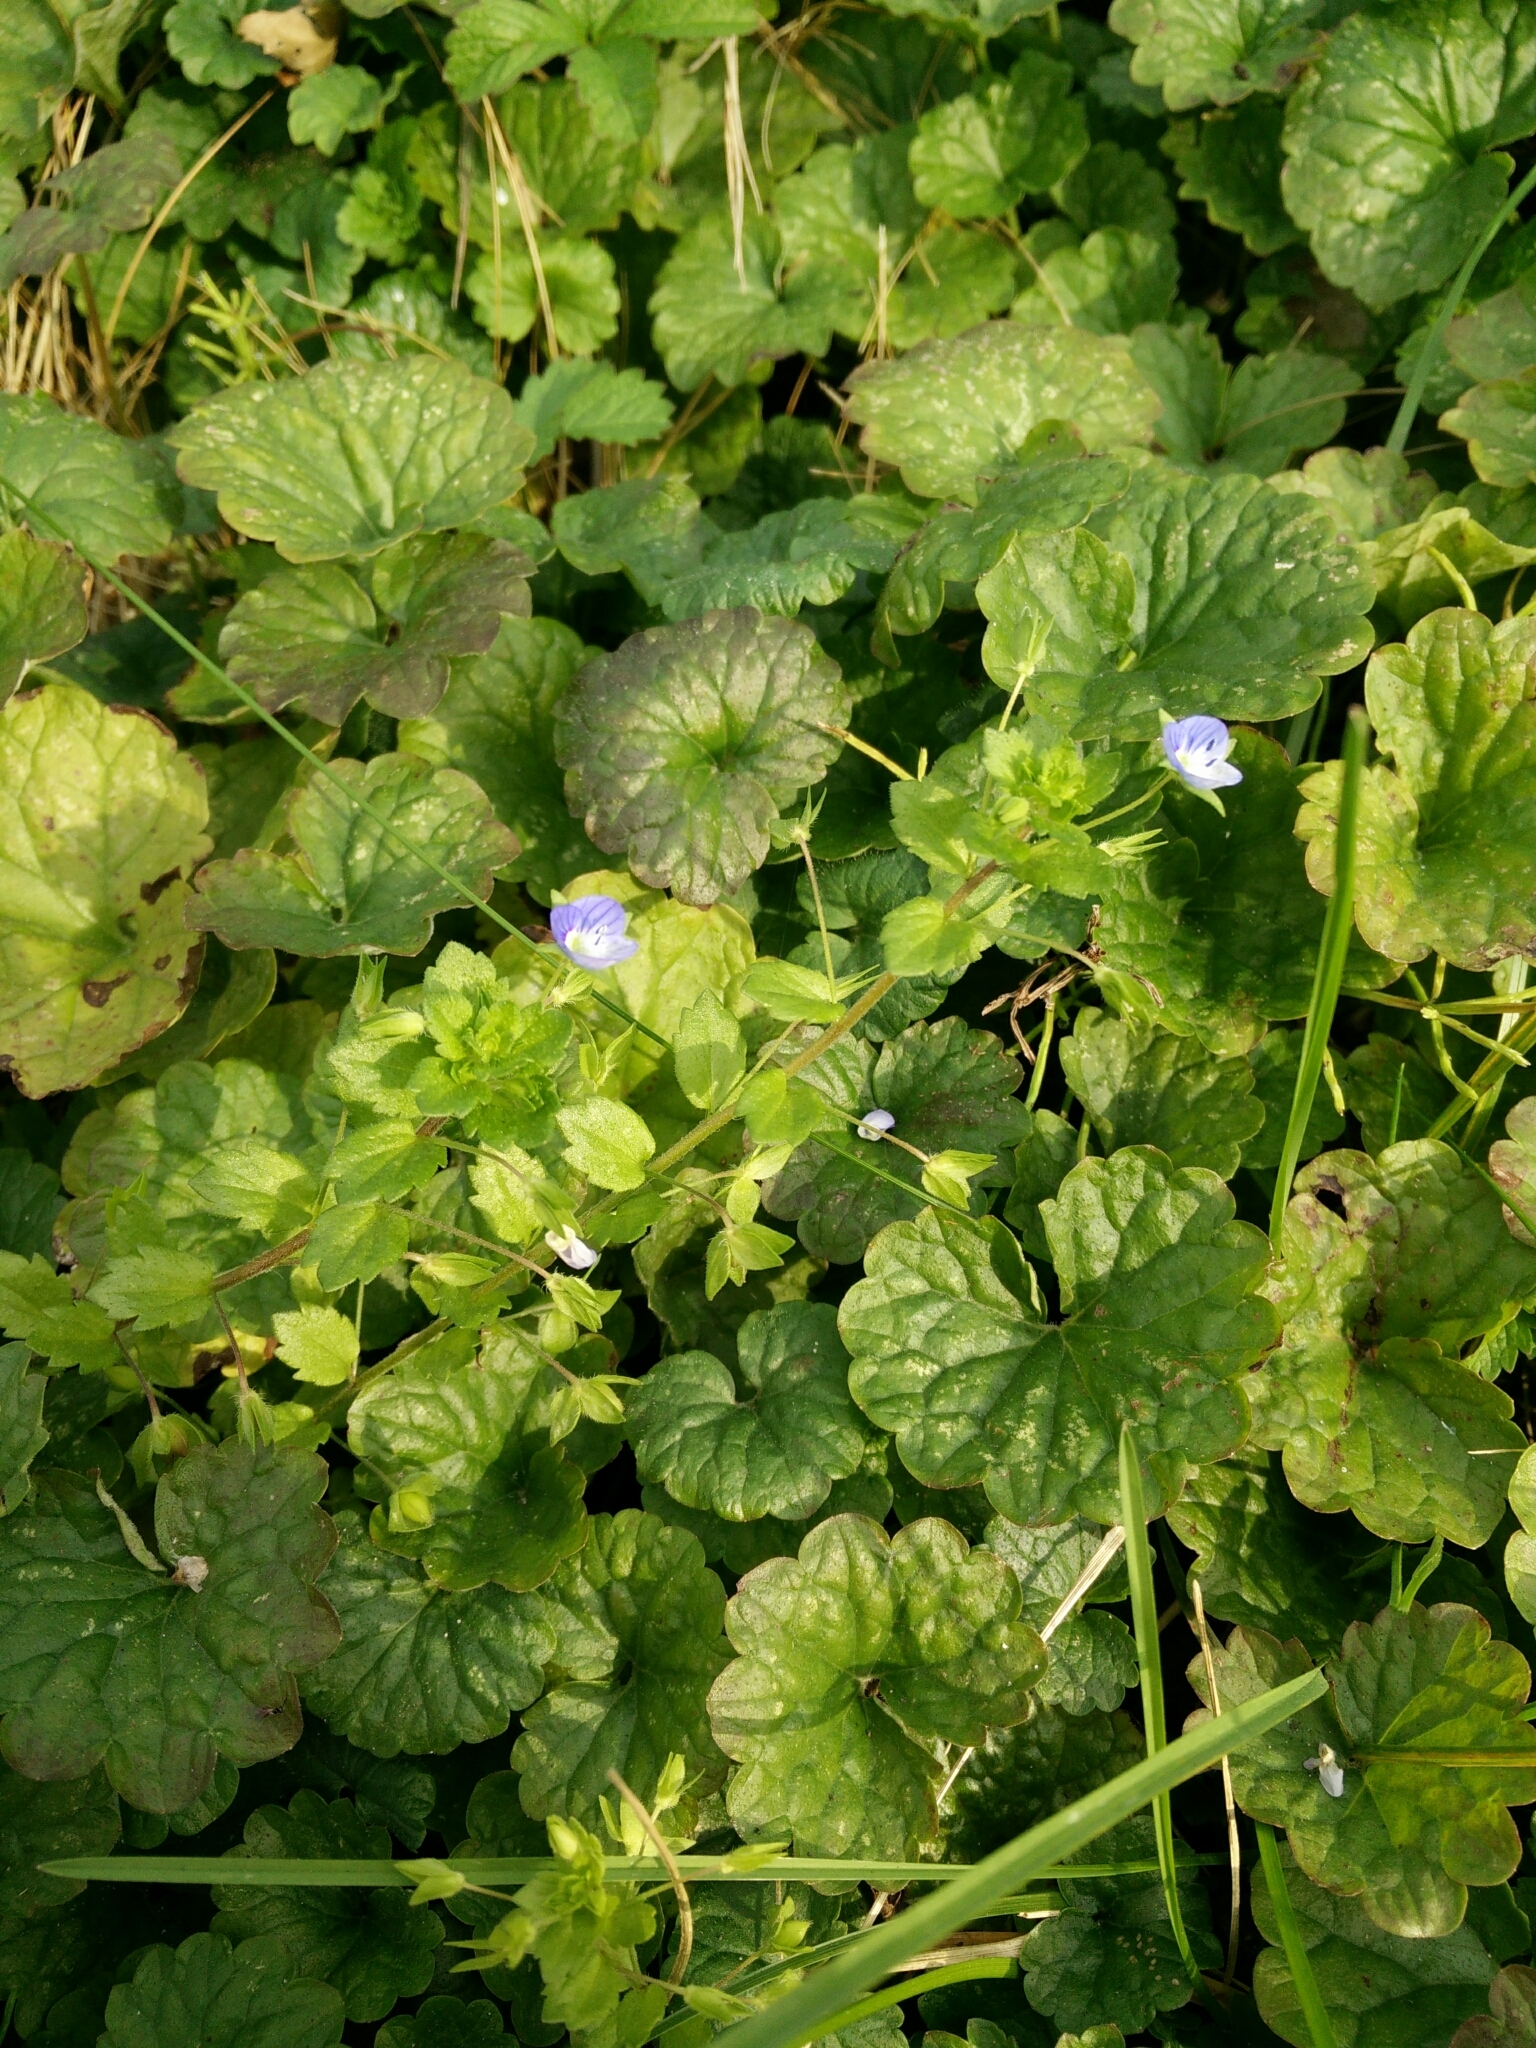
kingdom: Plantae
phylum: Tracheophyta
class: Magnoliopsida
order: Lamiales
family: Plantaginaceae
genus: Veronica
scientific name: Veronica persica
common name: Common field-speedwell
